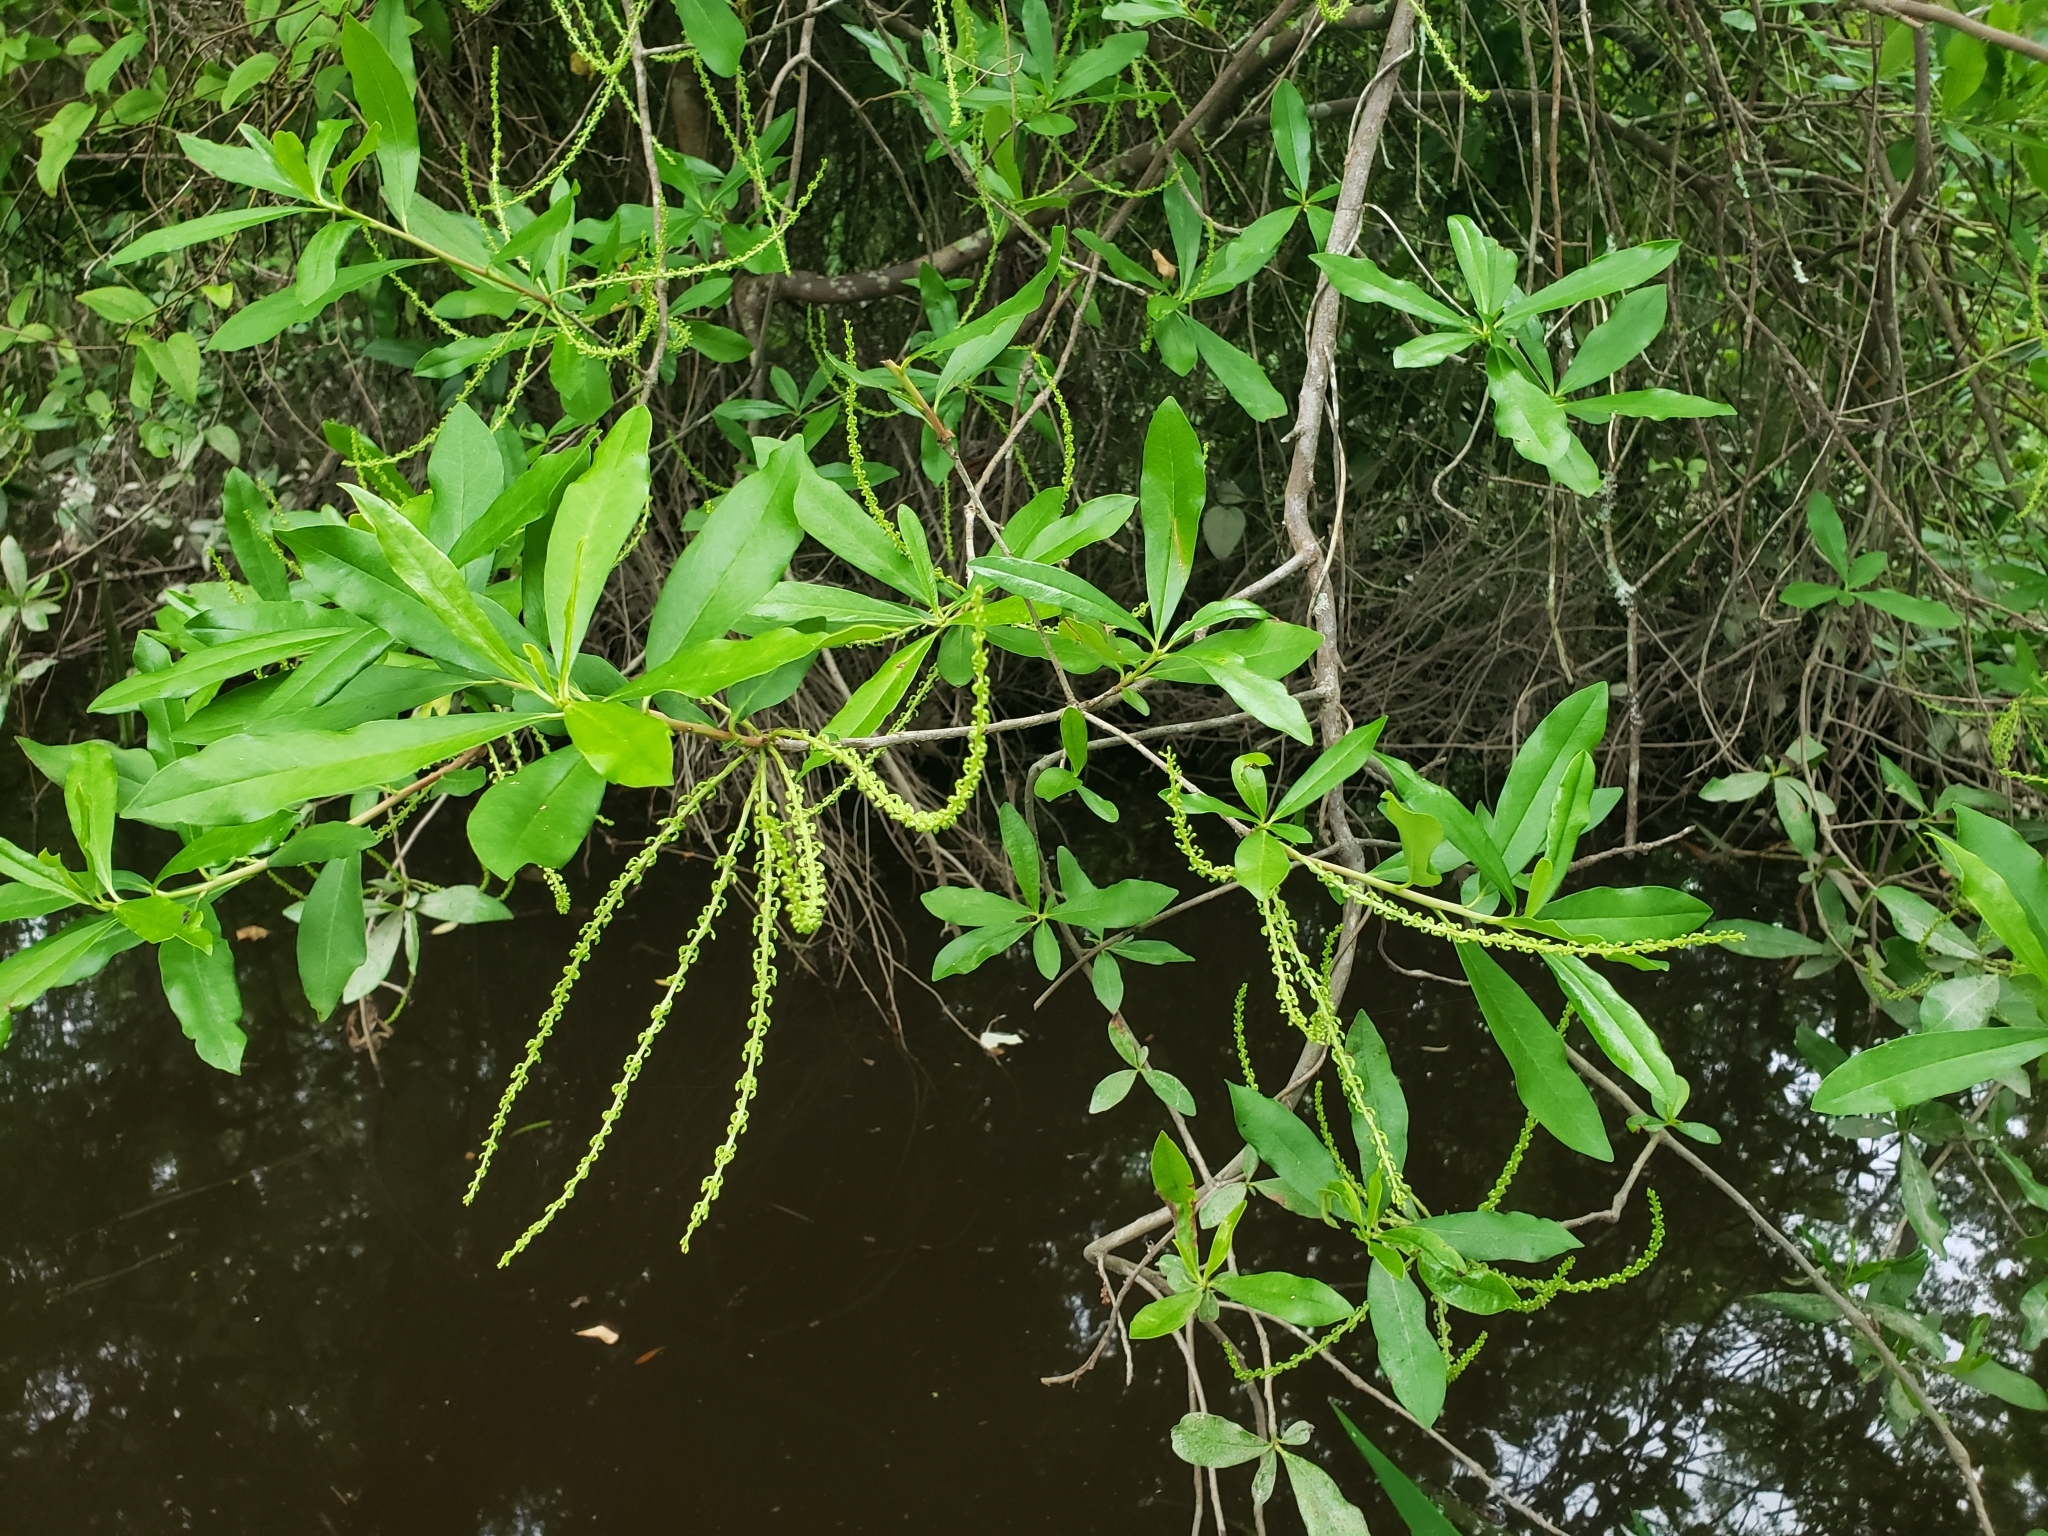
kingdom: Plantae
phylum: Tracheophyta
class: Magnoliopsida
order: Ericales
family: Cyrillaceae
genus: Cyrilla
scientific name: Cyrilla racemiflora
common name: Black titi
